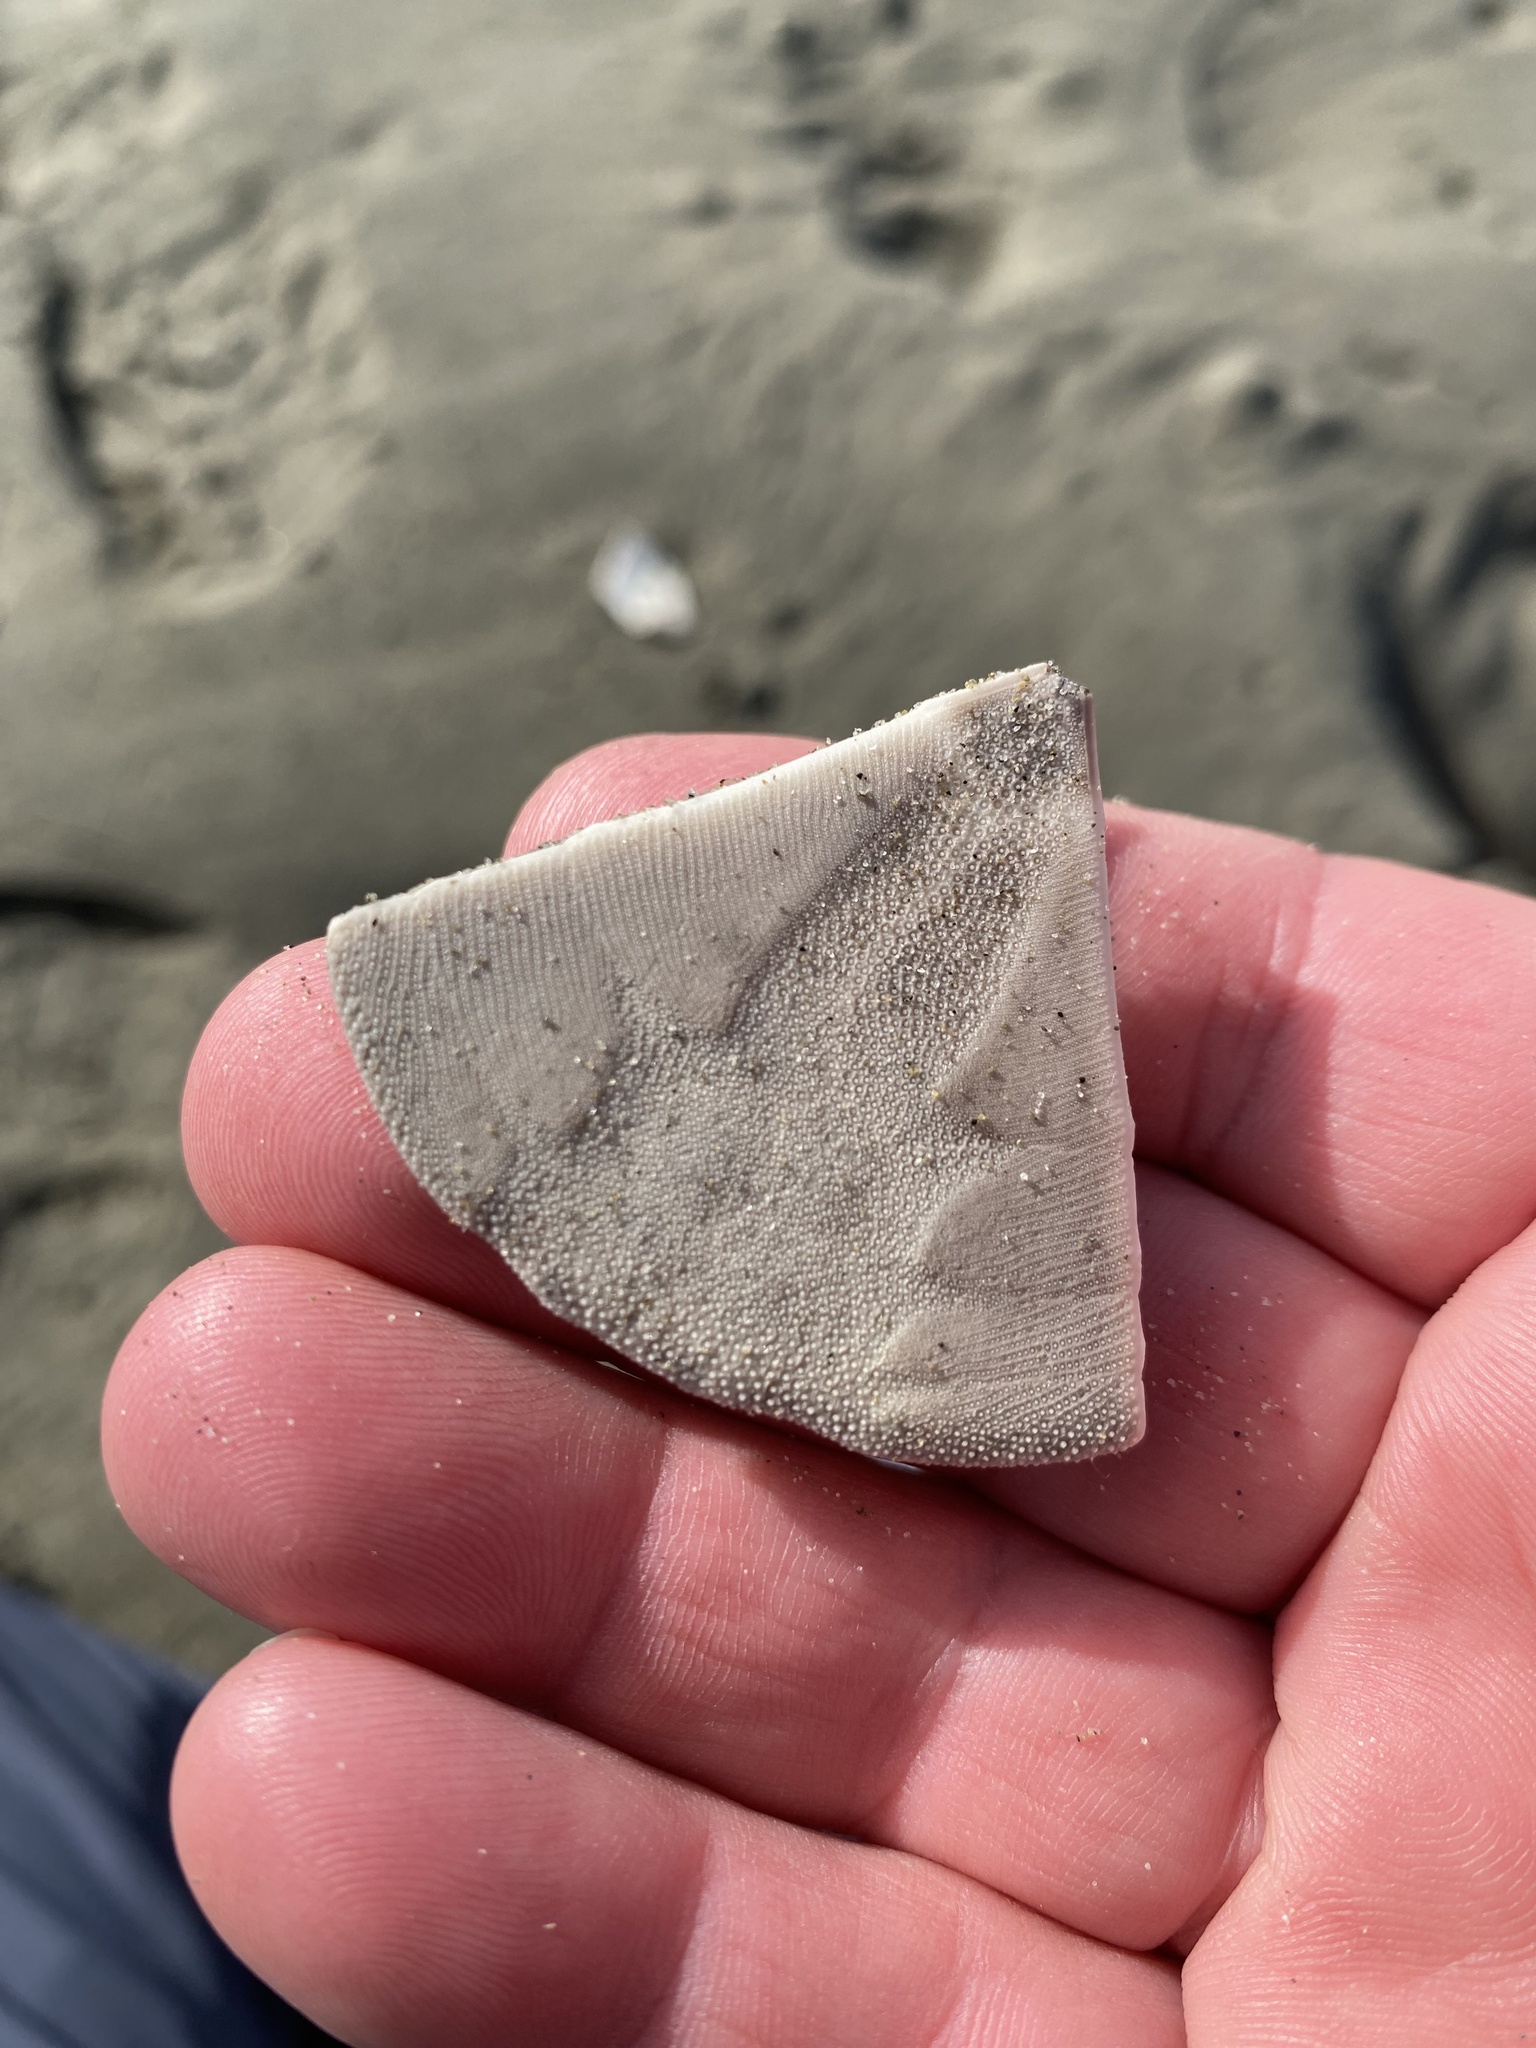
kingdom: Animalia
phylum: Echinodermata
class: Echinoidea
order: Clypeasteroida
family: Clypeasteridae
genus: Fellaster
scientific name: Fellaster zelandiae
